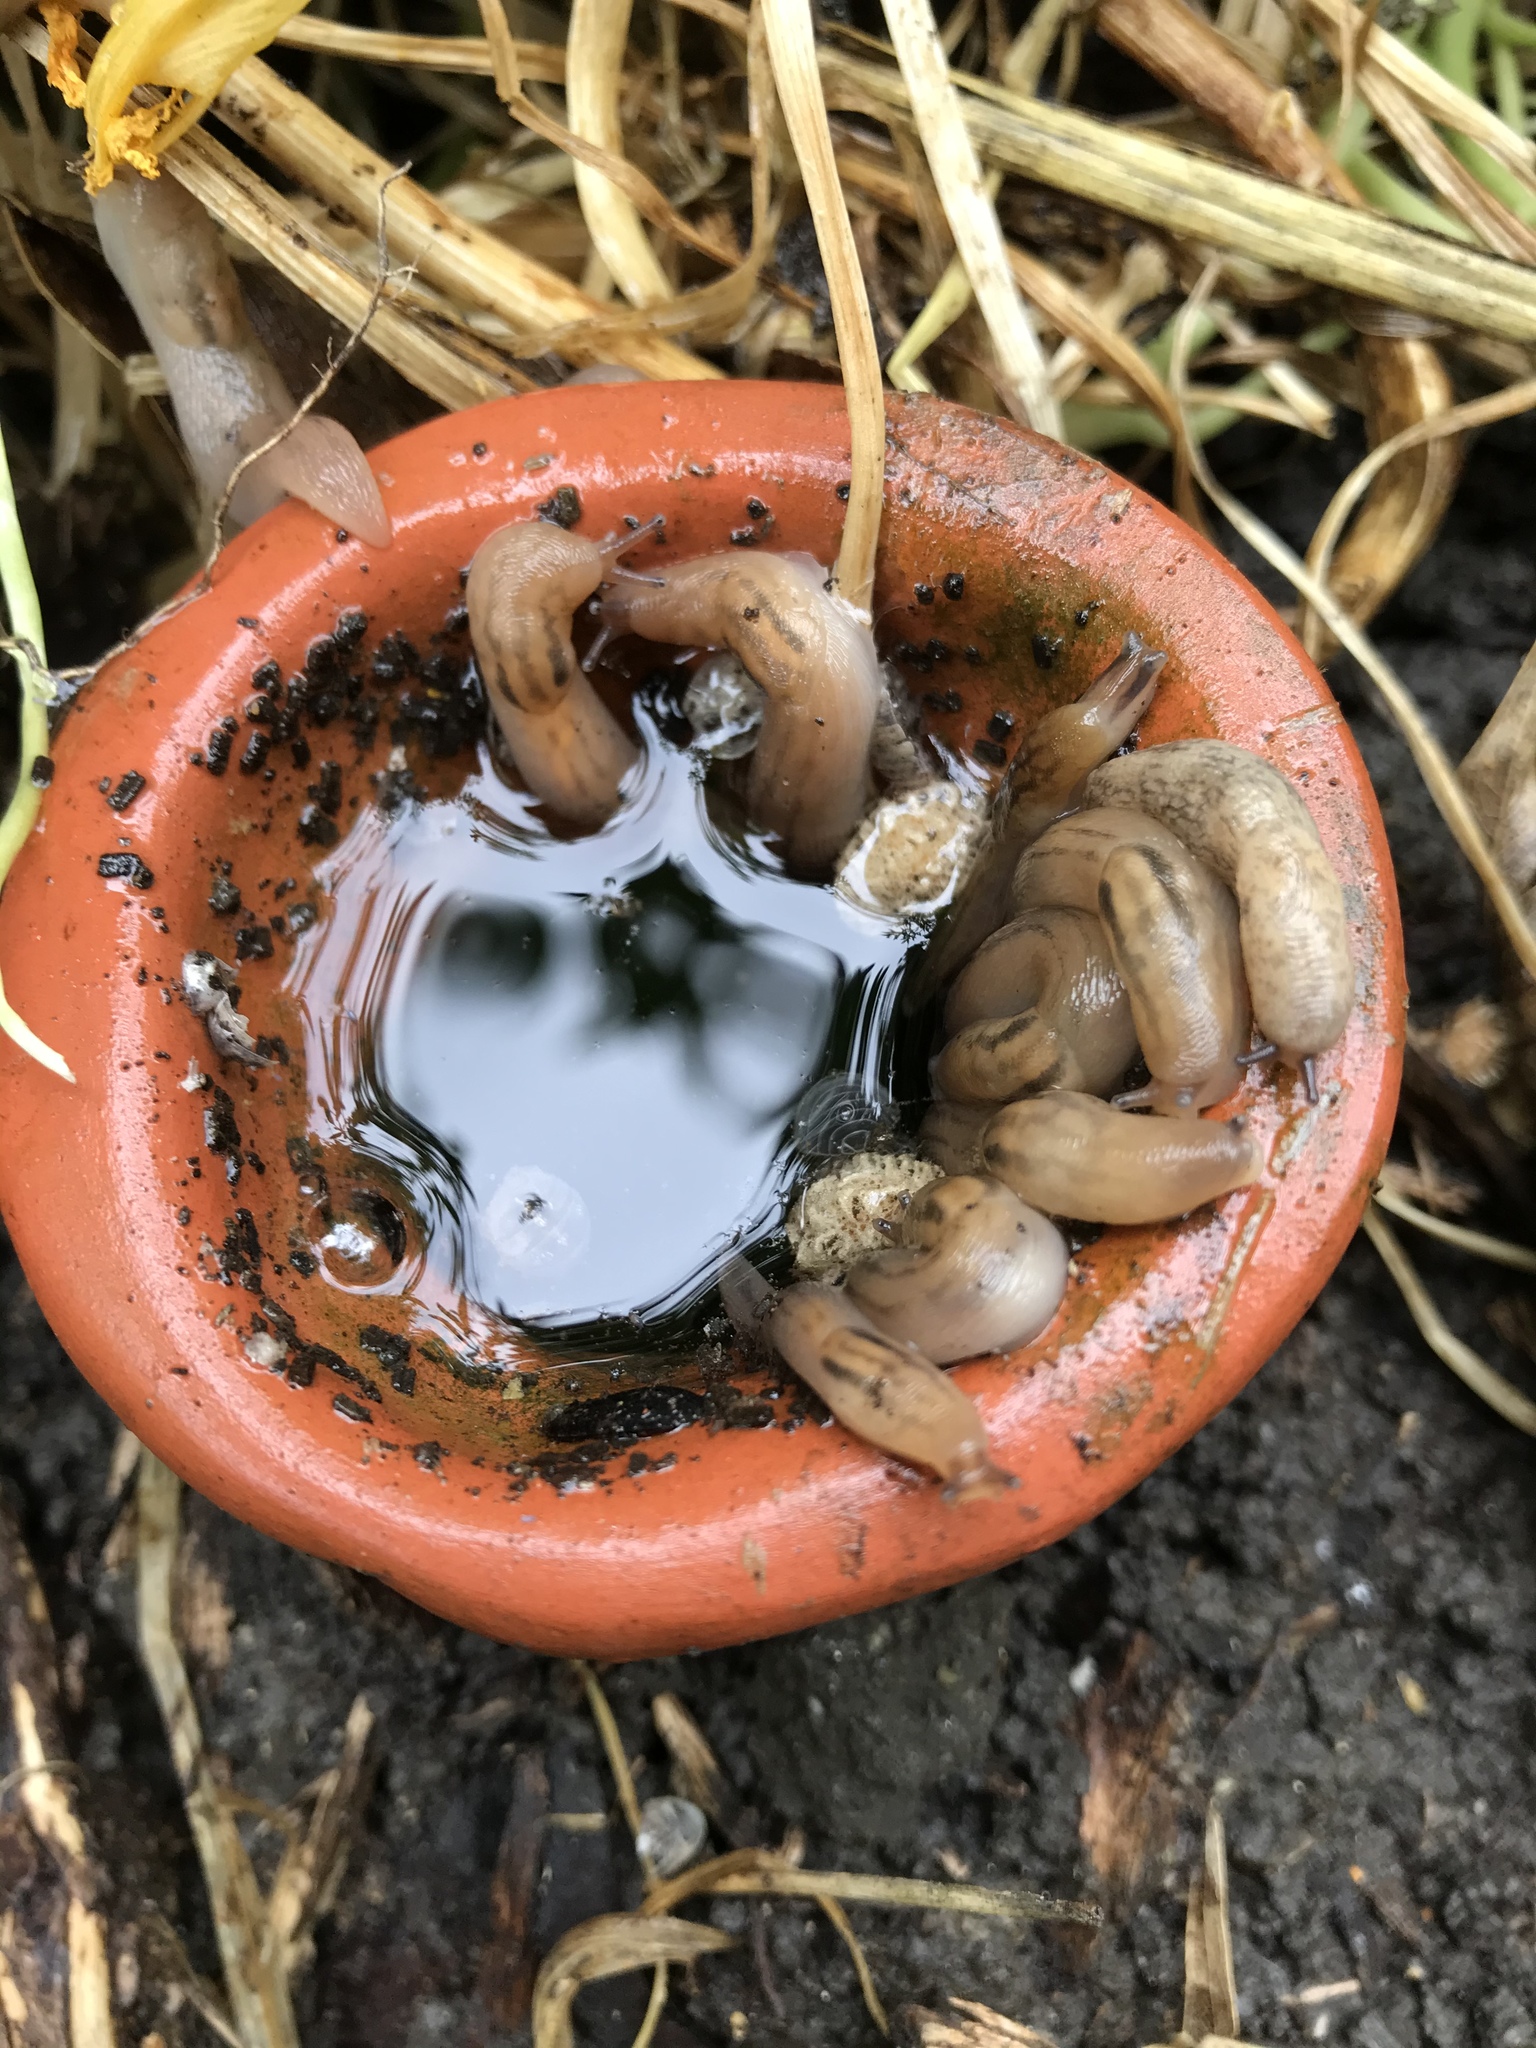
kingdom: Animalia
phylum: Mollusca
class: Gastropoda
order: Stylommatophora
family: Limacidae
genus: Ambigolimax
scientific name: Ambigolimax
